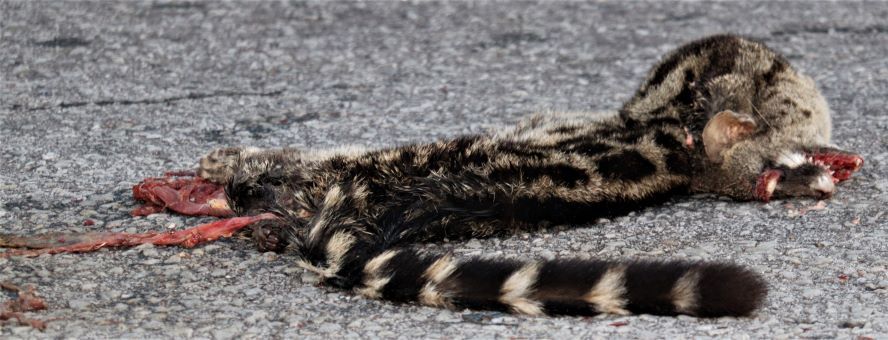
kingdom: Animalia
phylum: Chordata
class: Mammalia
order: Carnivora
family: Viverridae
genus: Genetta
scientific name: Genetta tigrina
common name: Cape genet
